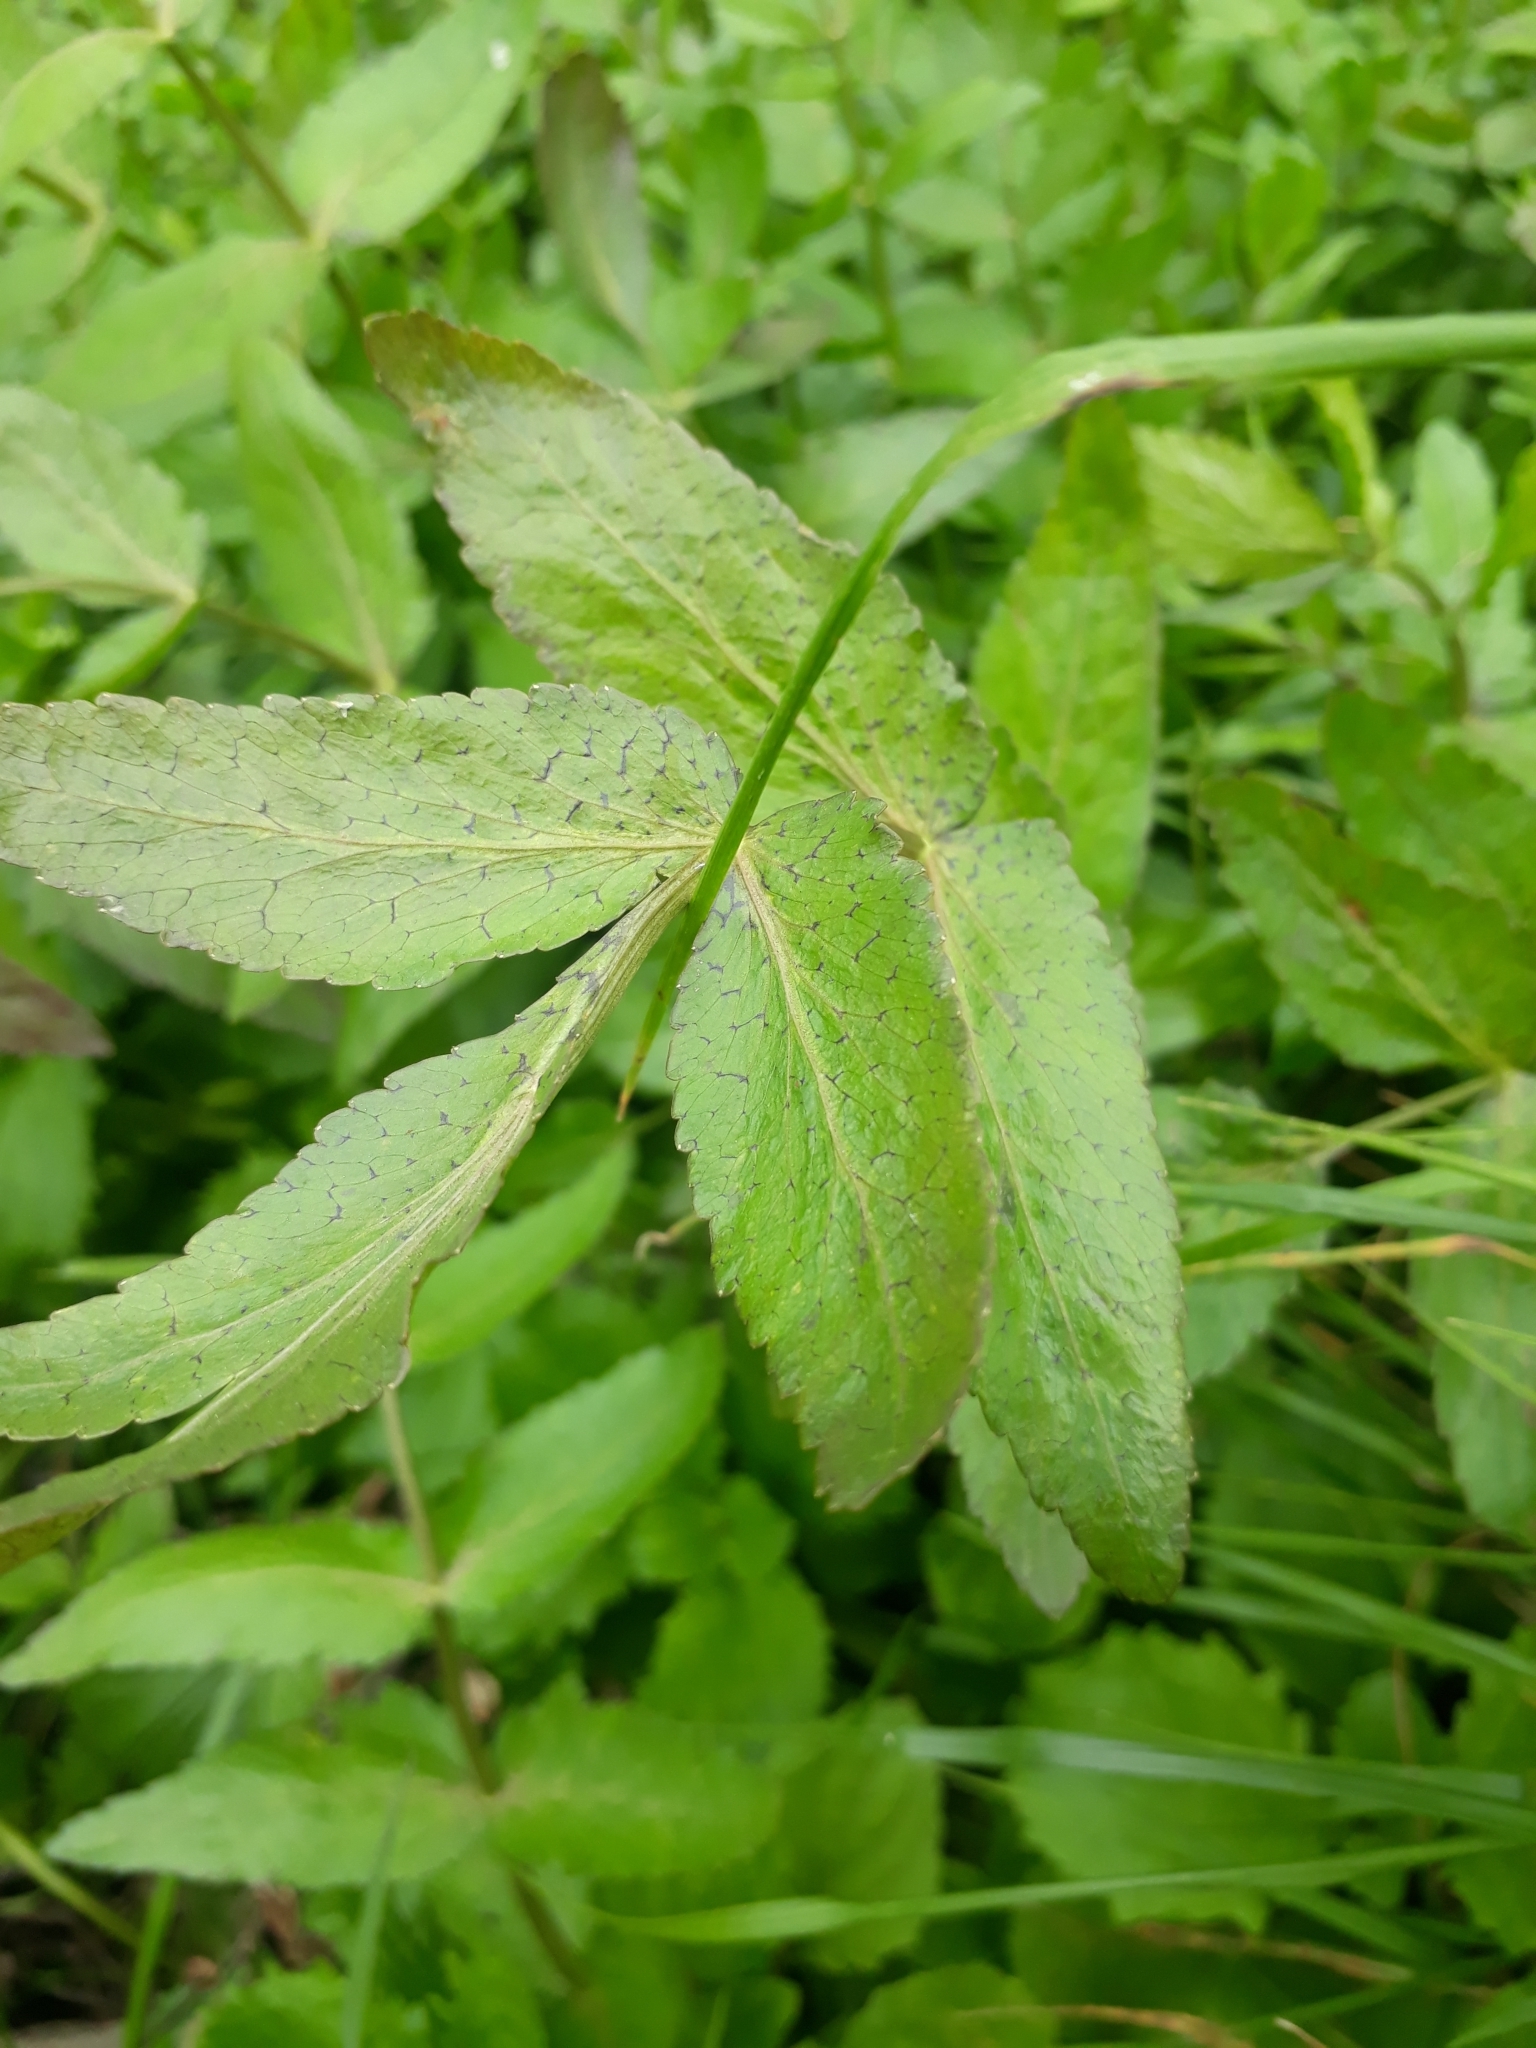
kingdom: Plantae
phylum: Tracheophyta
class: Magnoliopsida
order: Apiales
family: Apiaceae
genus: Helosciadium
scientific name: Helosciadium nodiflorum
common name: Fool's-watercress
